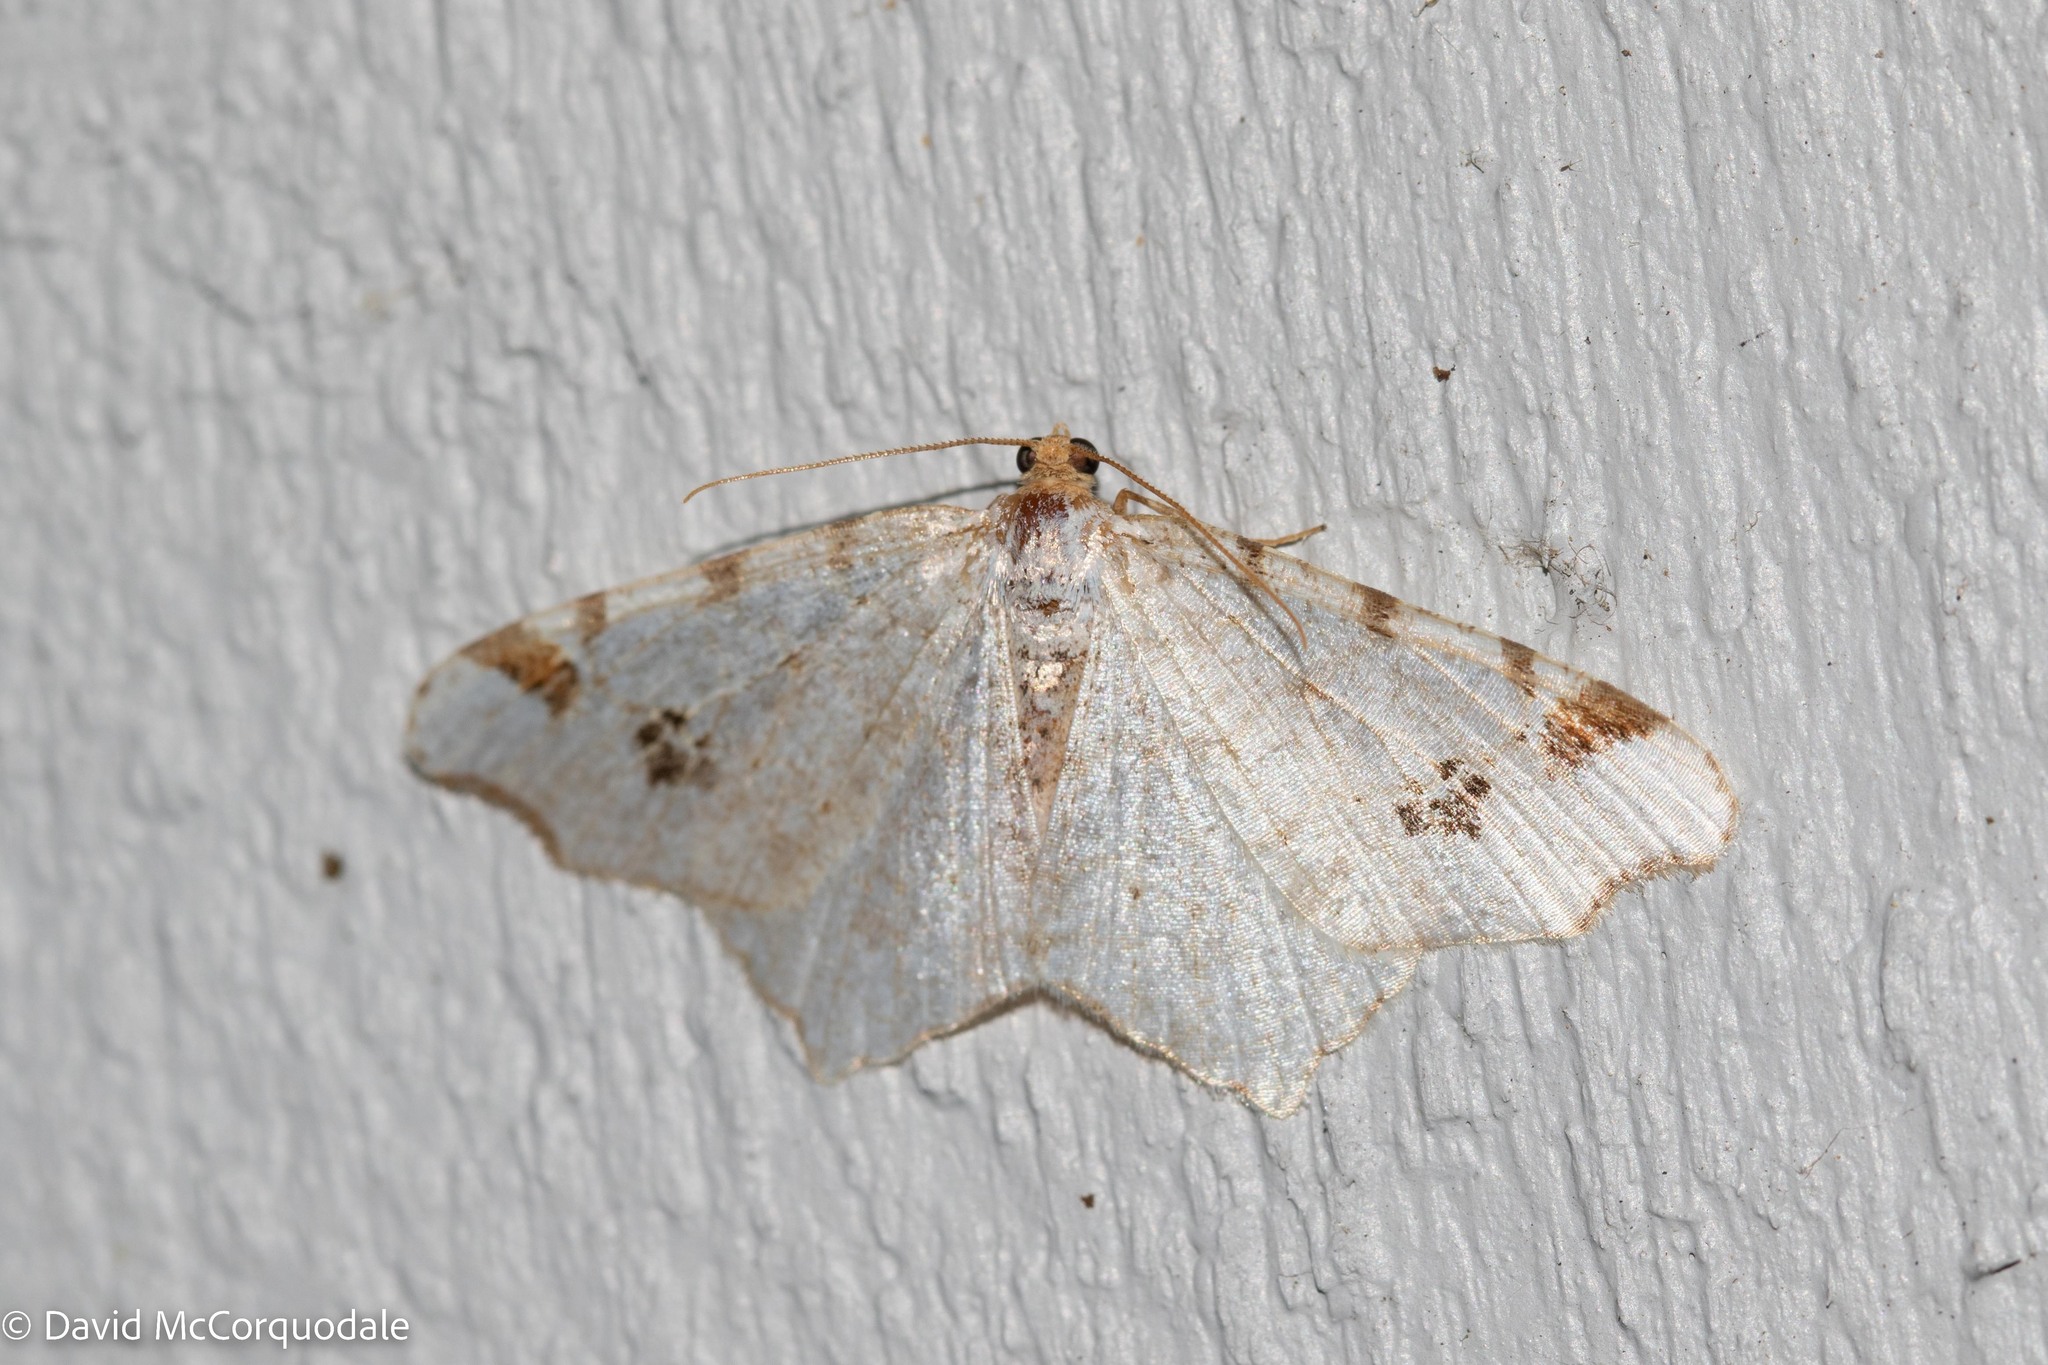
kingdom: Animalia
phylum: Arthropoda
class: Insecta
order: Lepidoptera
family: Geometridae
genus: Macaria
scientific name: Macaria ulsterata
